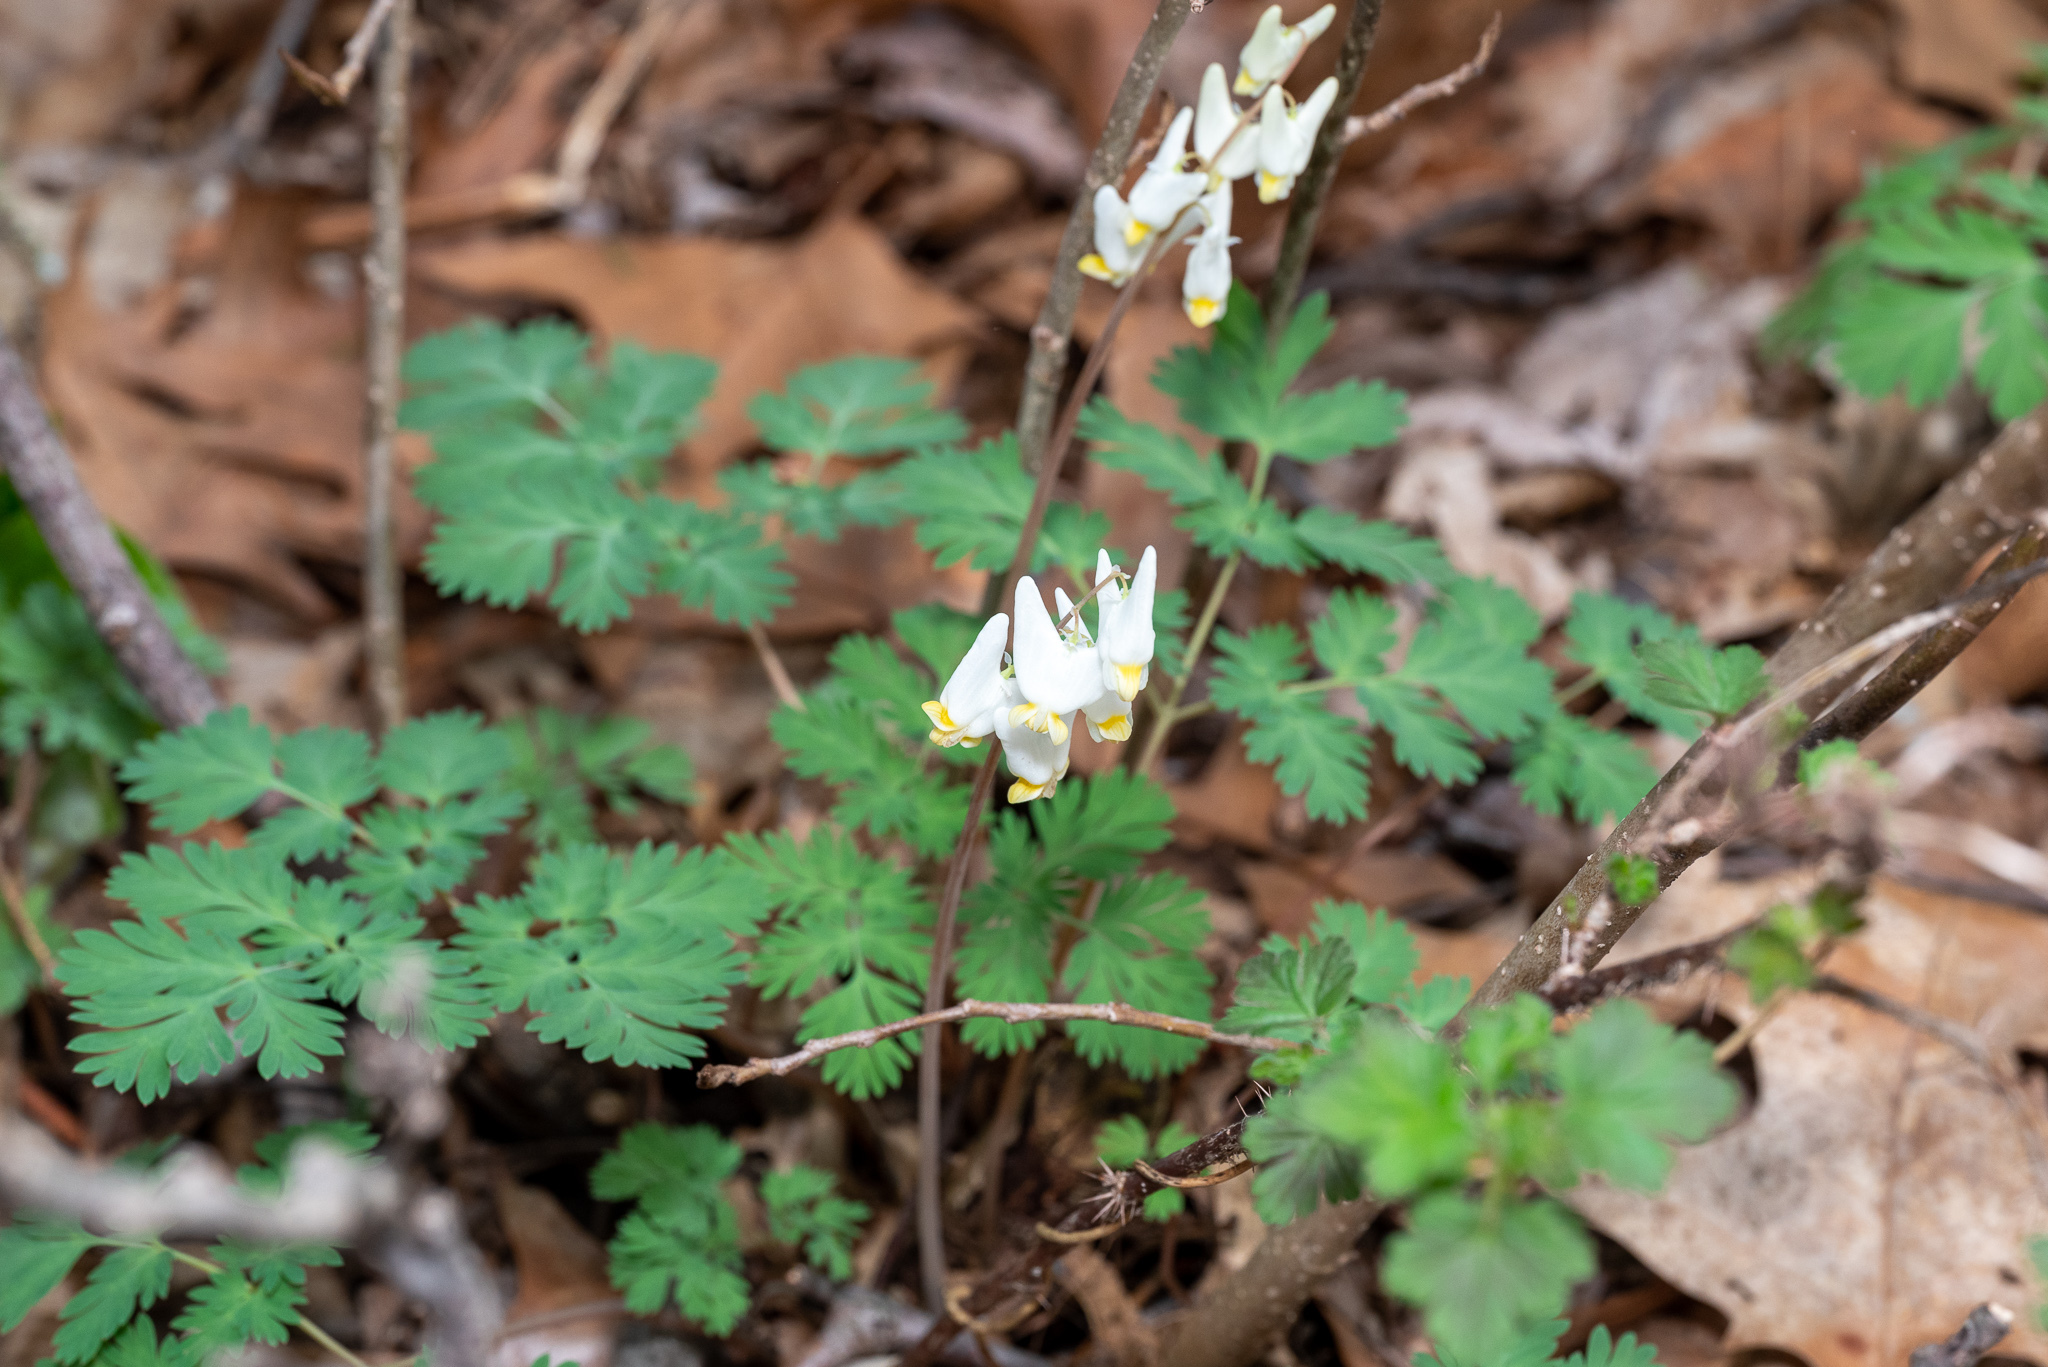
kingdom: Plantae
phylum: Tracheophyta
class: Magnoliopsida
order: Ranunculales
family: Papaveraceae
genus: Dicentra
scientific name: Dicentra cucullaria
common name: Dutchman's breeches
